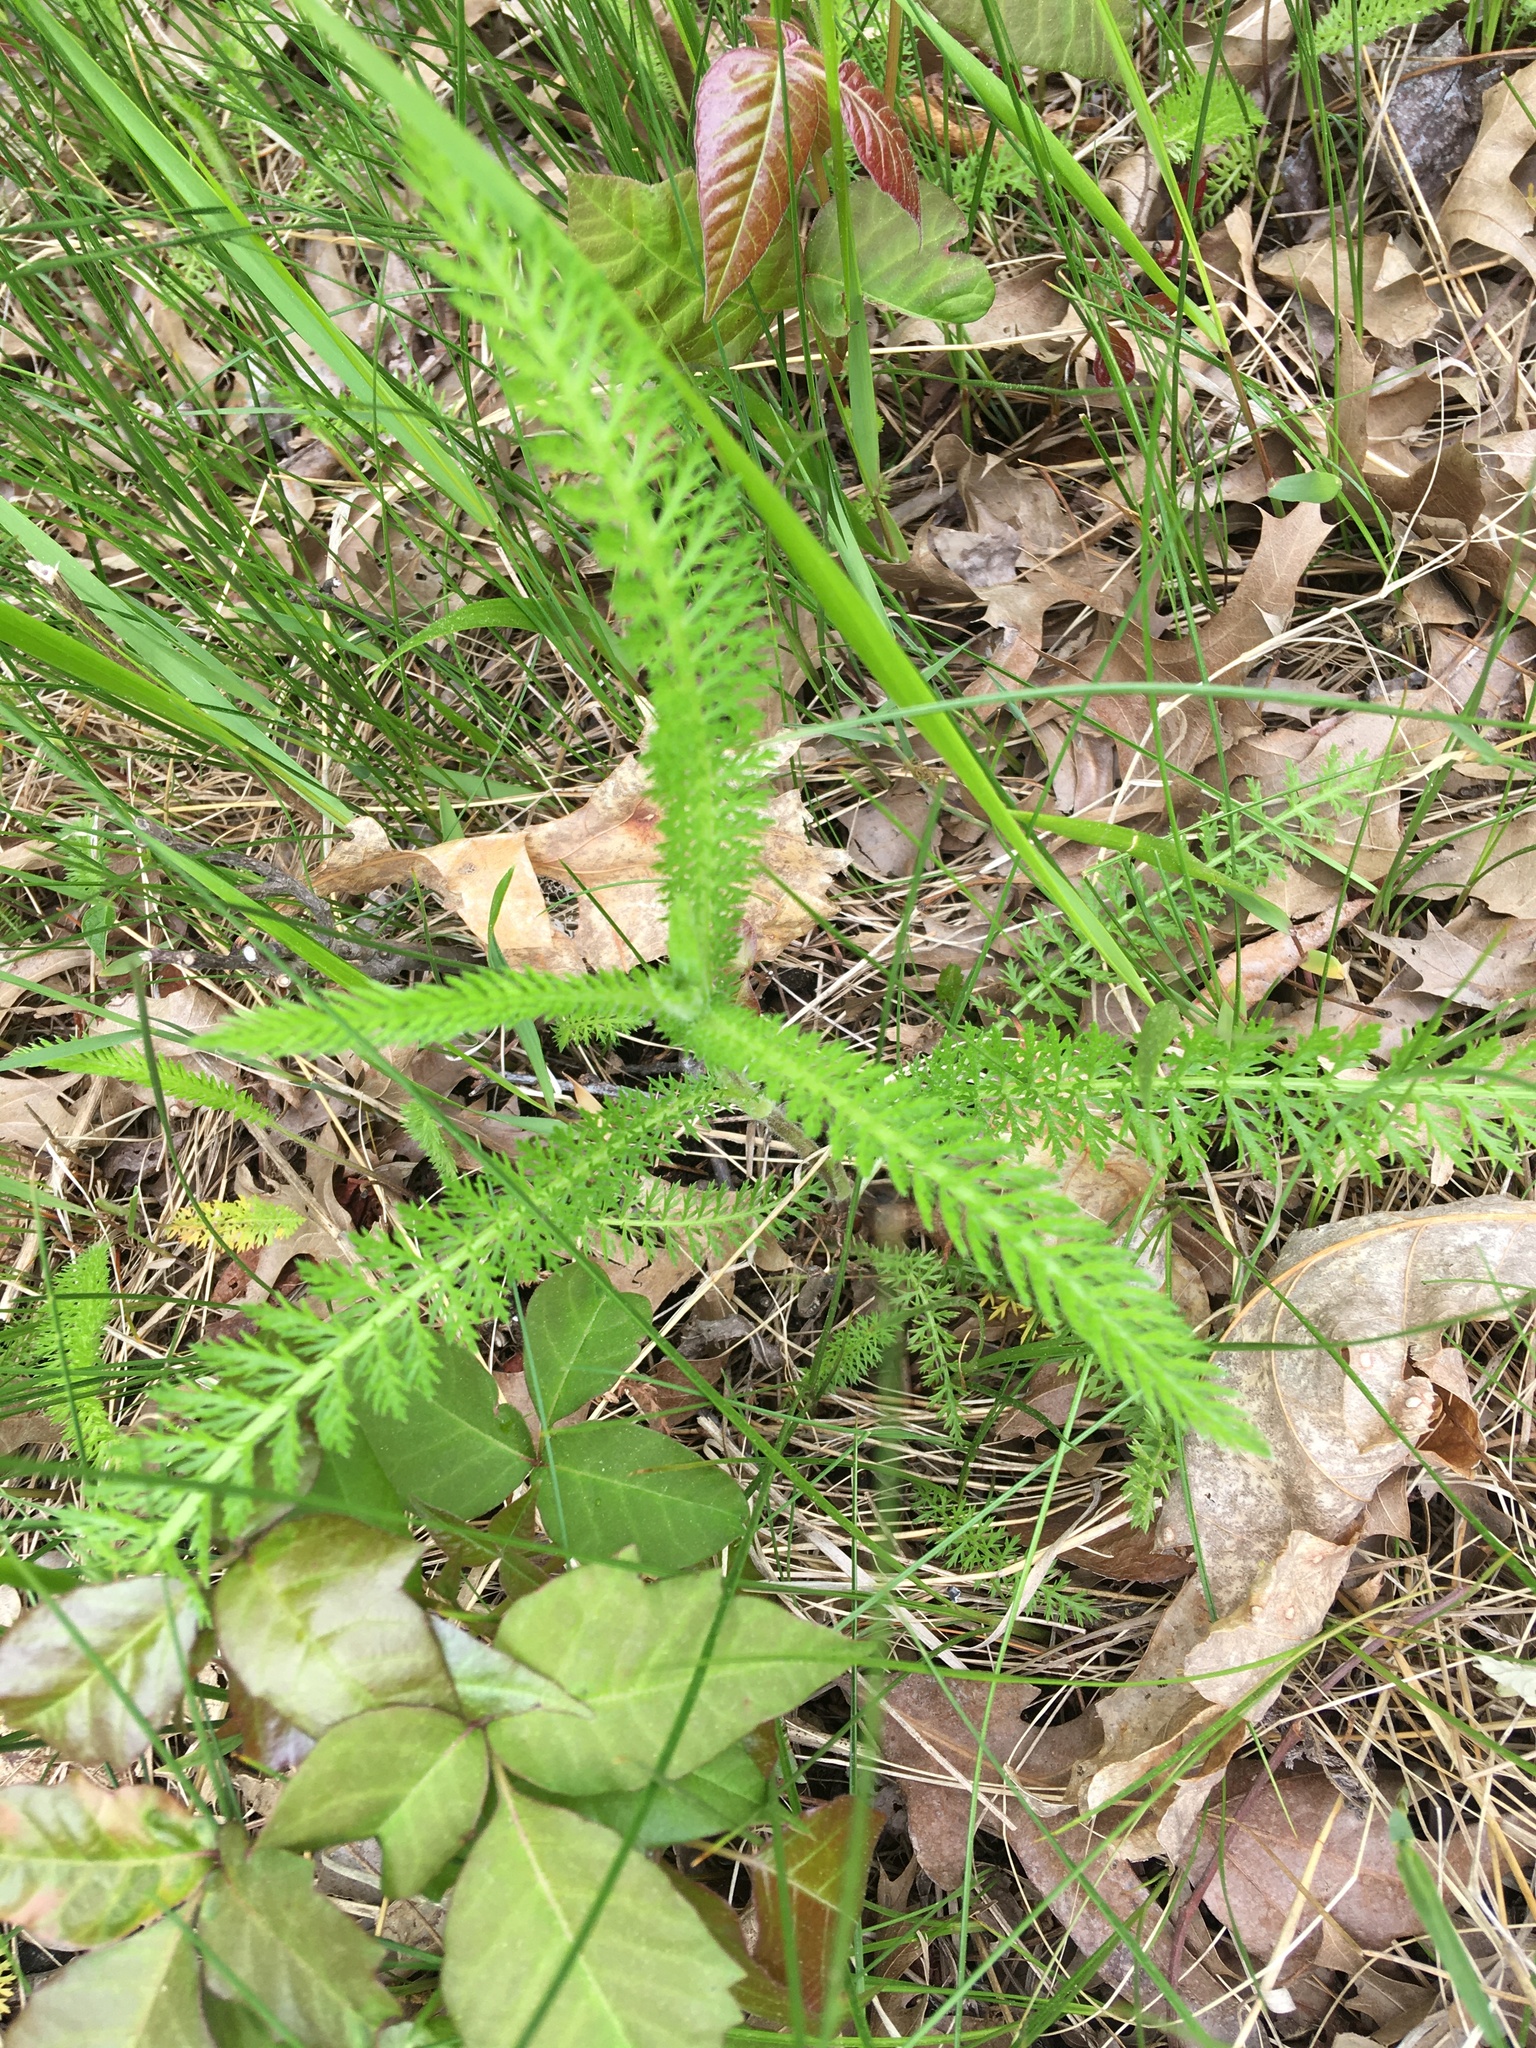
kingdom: Plantae
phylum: Tracheophyta
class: Magnoliopsida
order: Asterales
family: Asteraceae
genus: Achillea
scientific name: Achillea millefolium
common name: Yarrow
